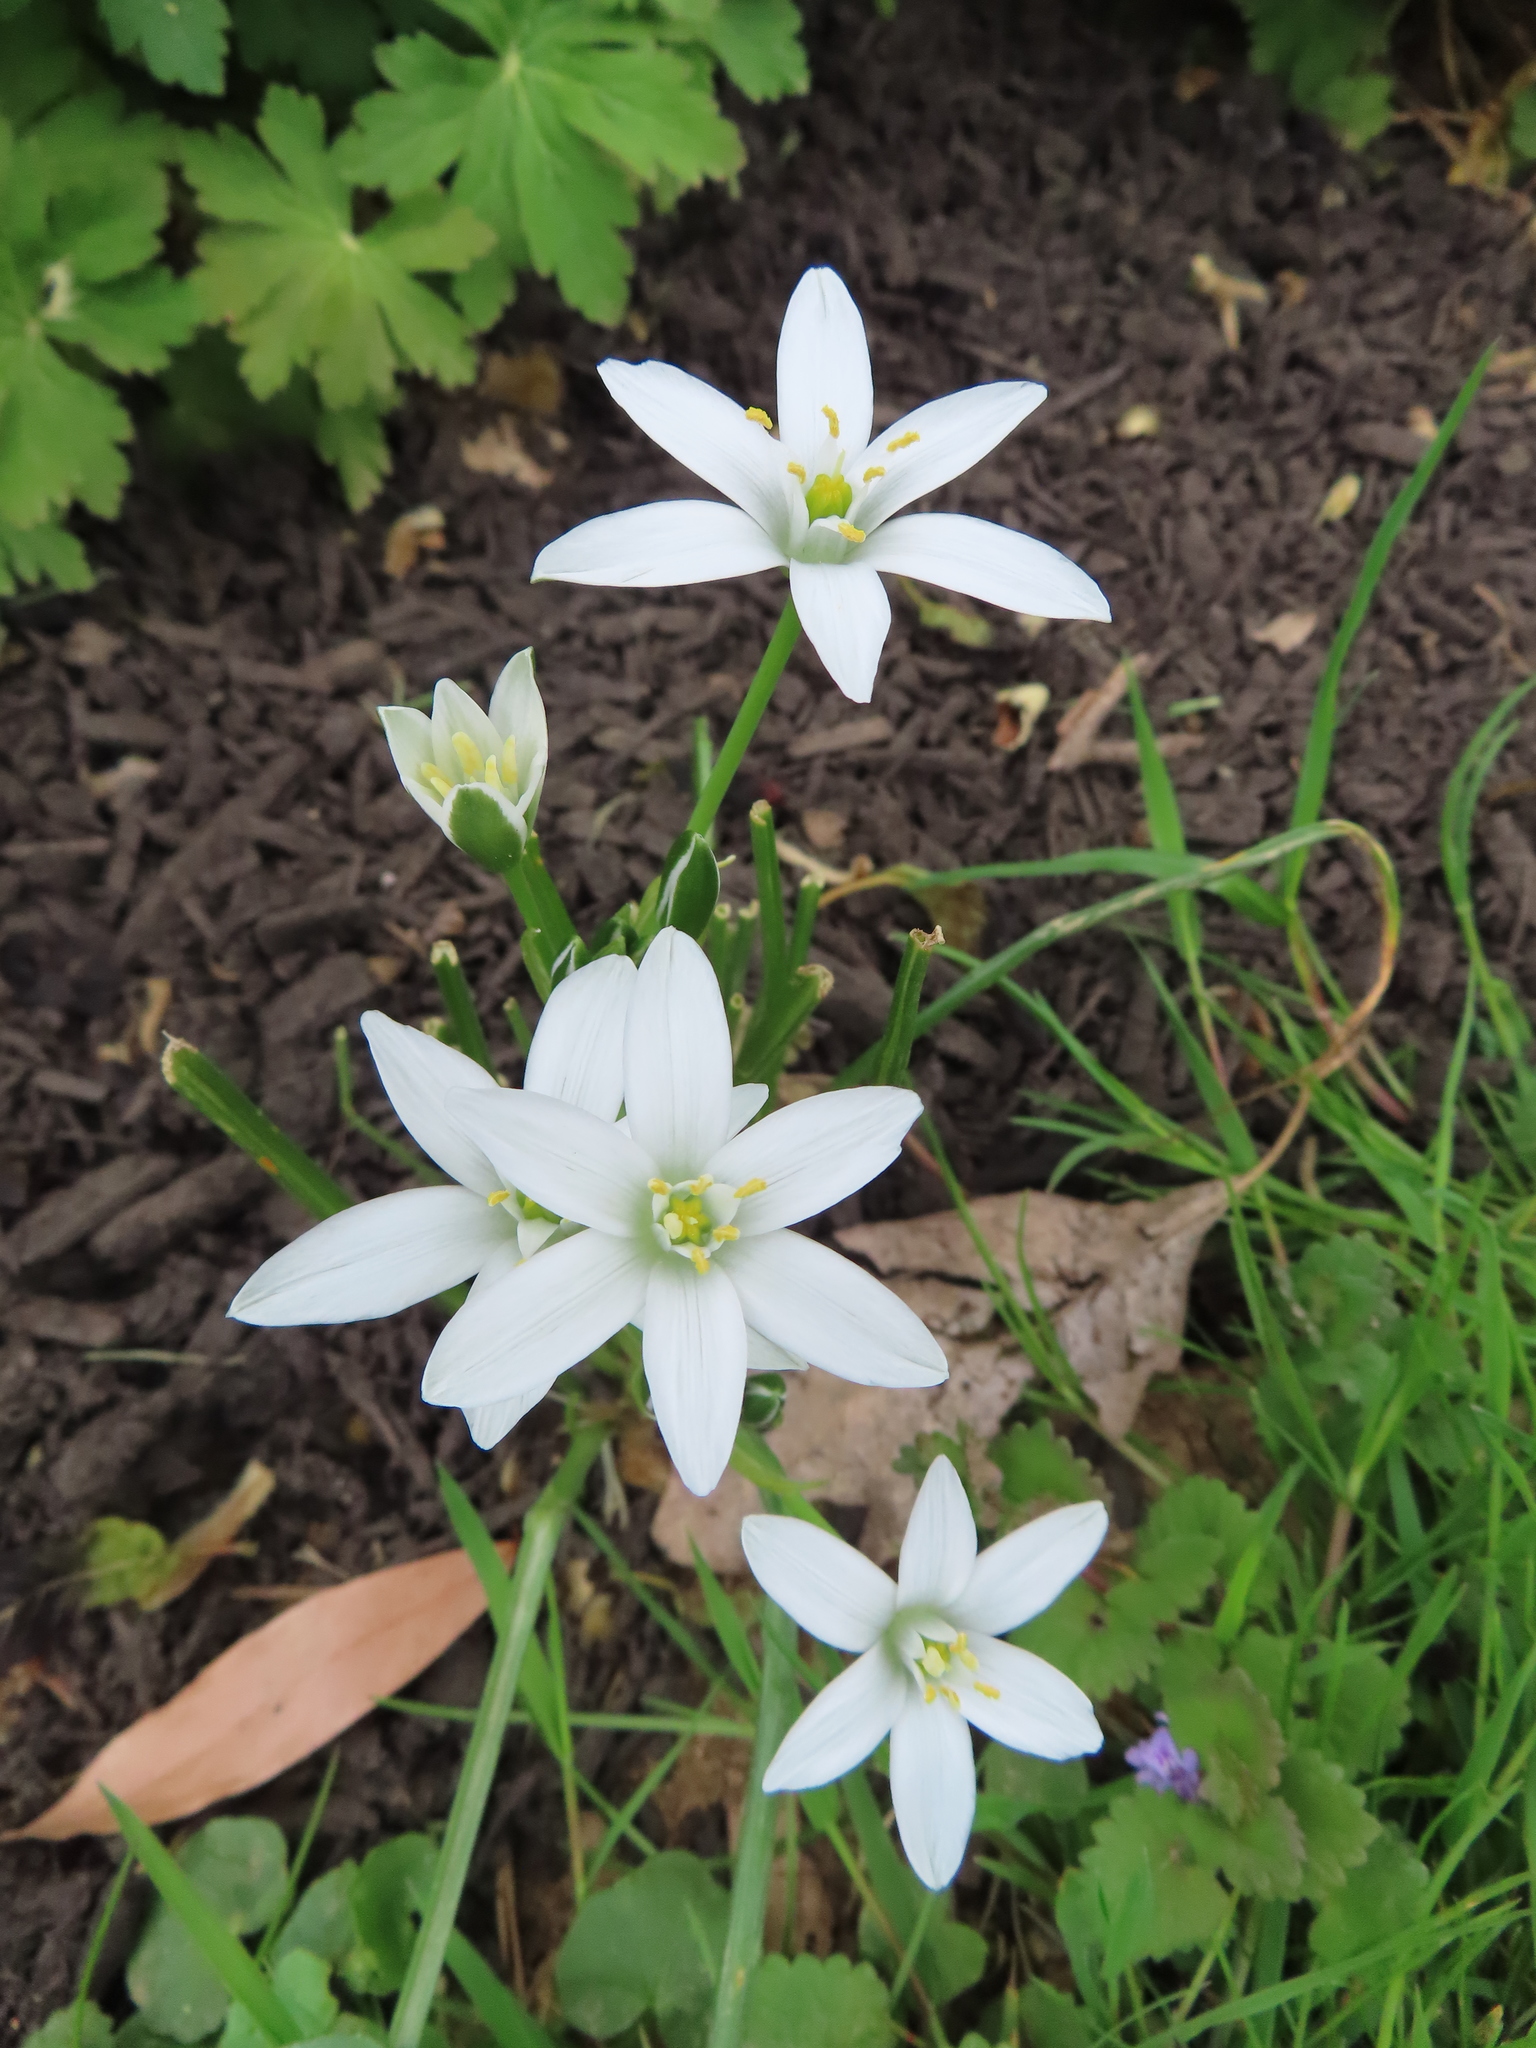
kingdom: Plantae
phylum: Tracheophyta
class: Liliopsida
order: Asparagales
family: Asparagaceae
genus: Ornithogalum
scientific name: Ornithogalum umbellatum
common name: Garden star-of-bethlehem
